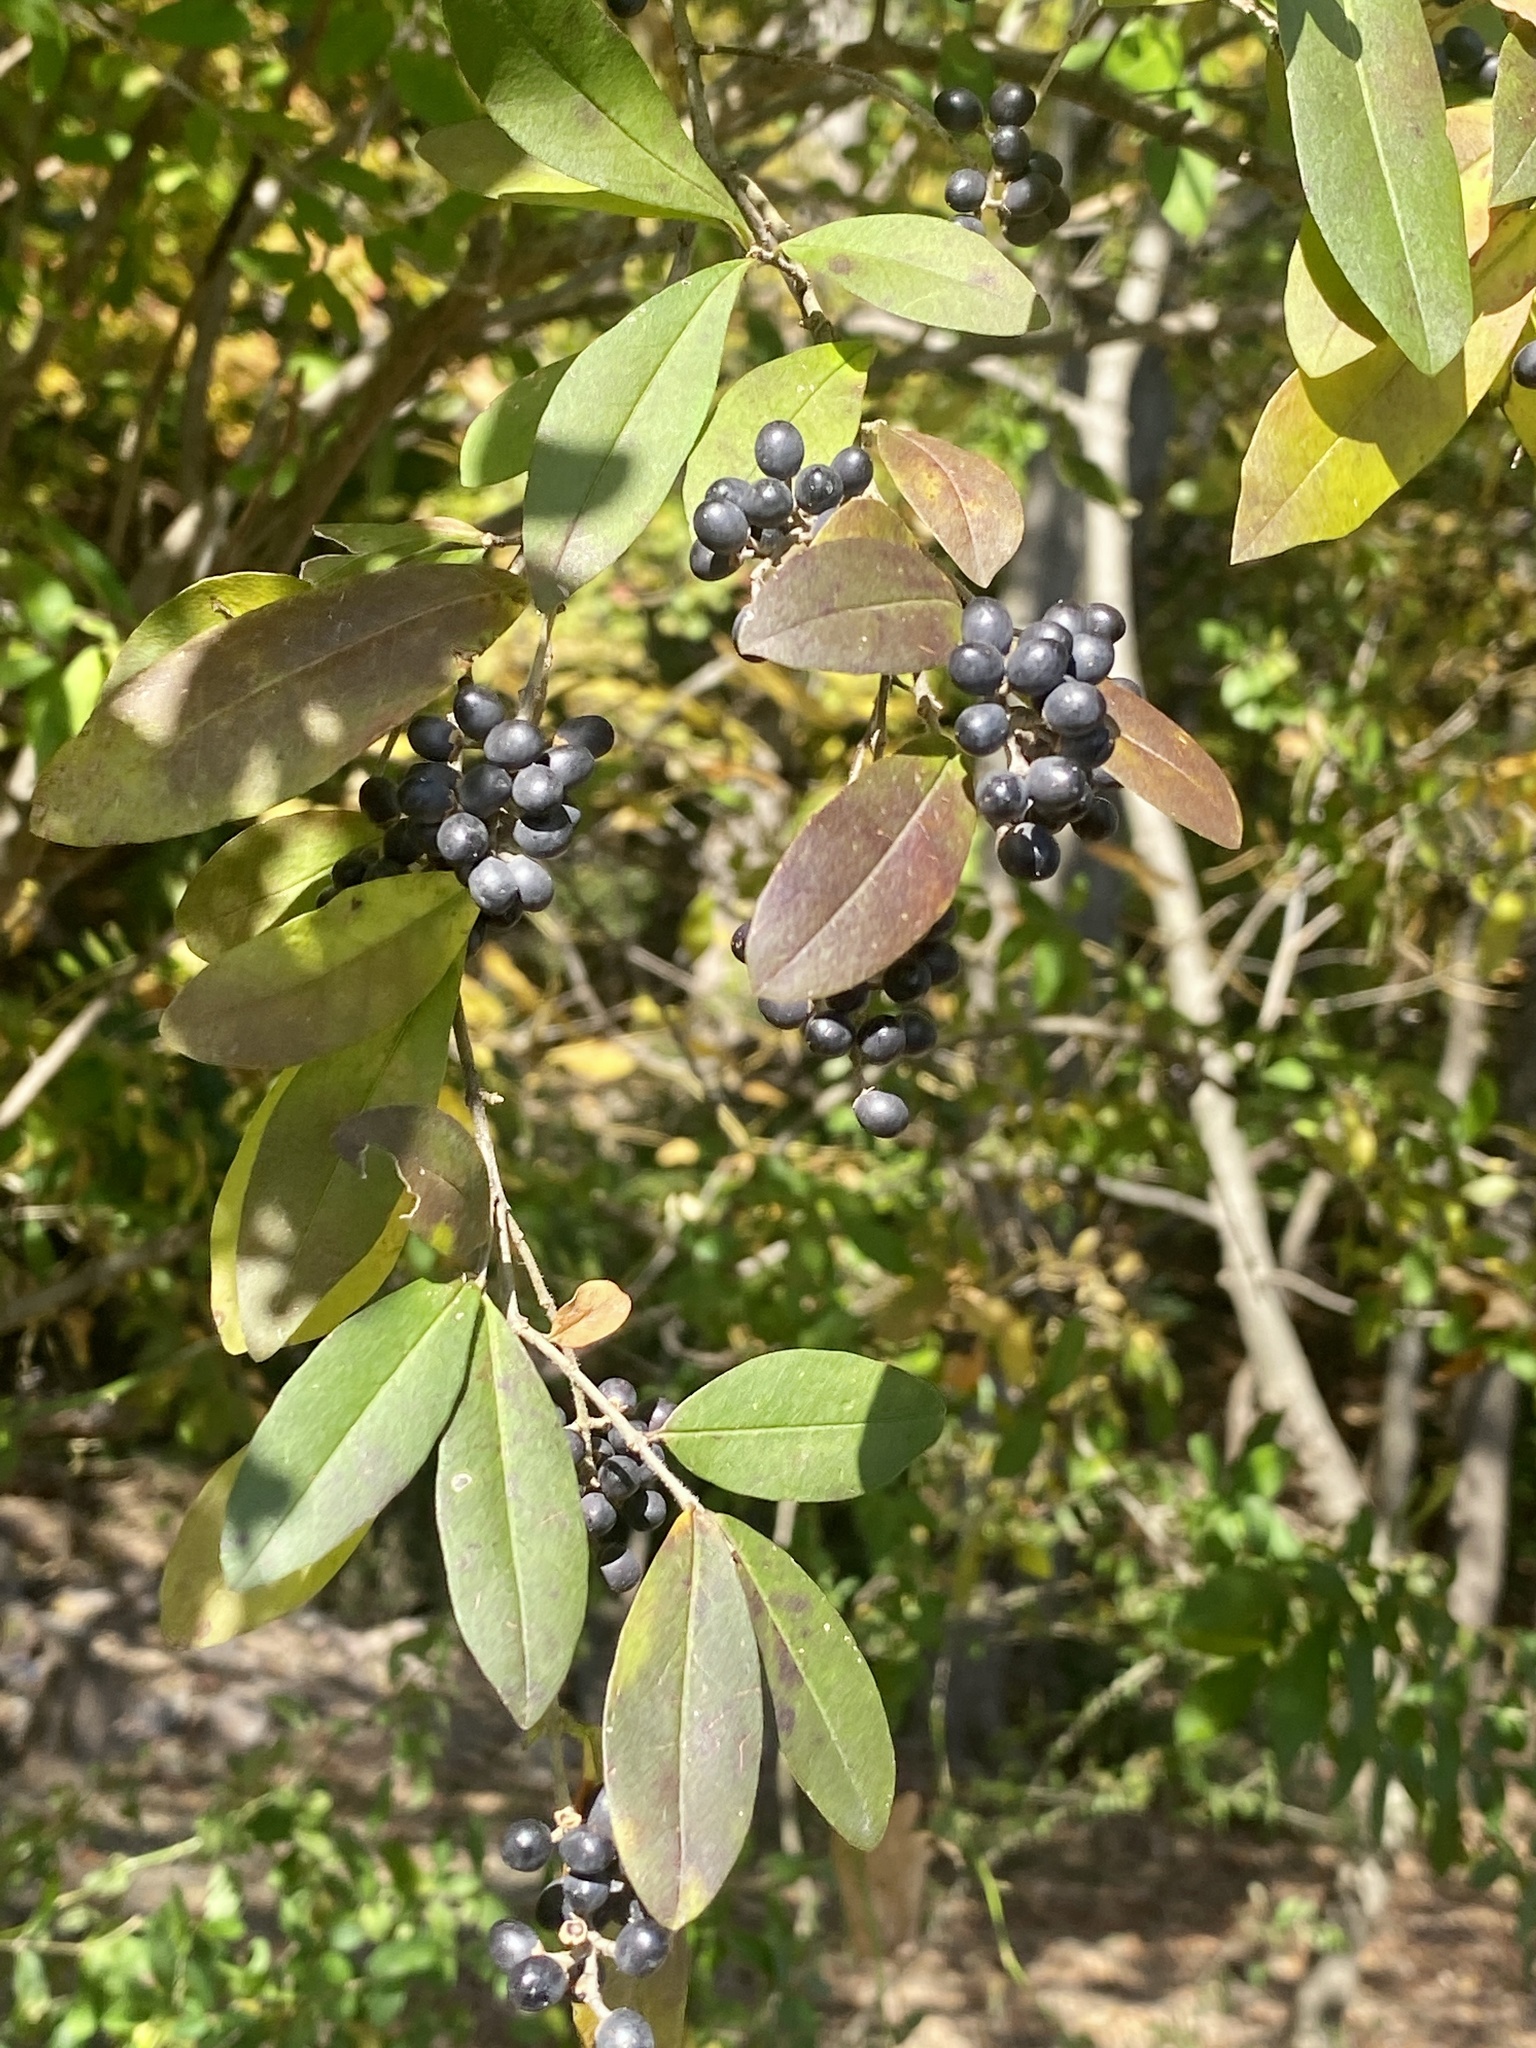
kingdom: Plantae
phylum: Tracheophyta
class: Magnoliopsida
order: Lamiales
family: Oleaceae
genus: Ligustrum
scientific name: Ligustrum obtusifolium
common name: Border privet
